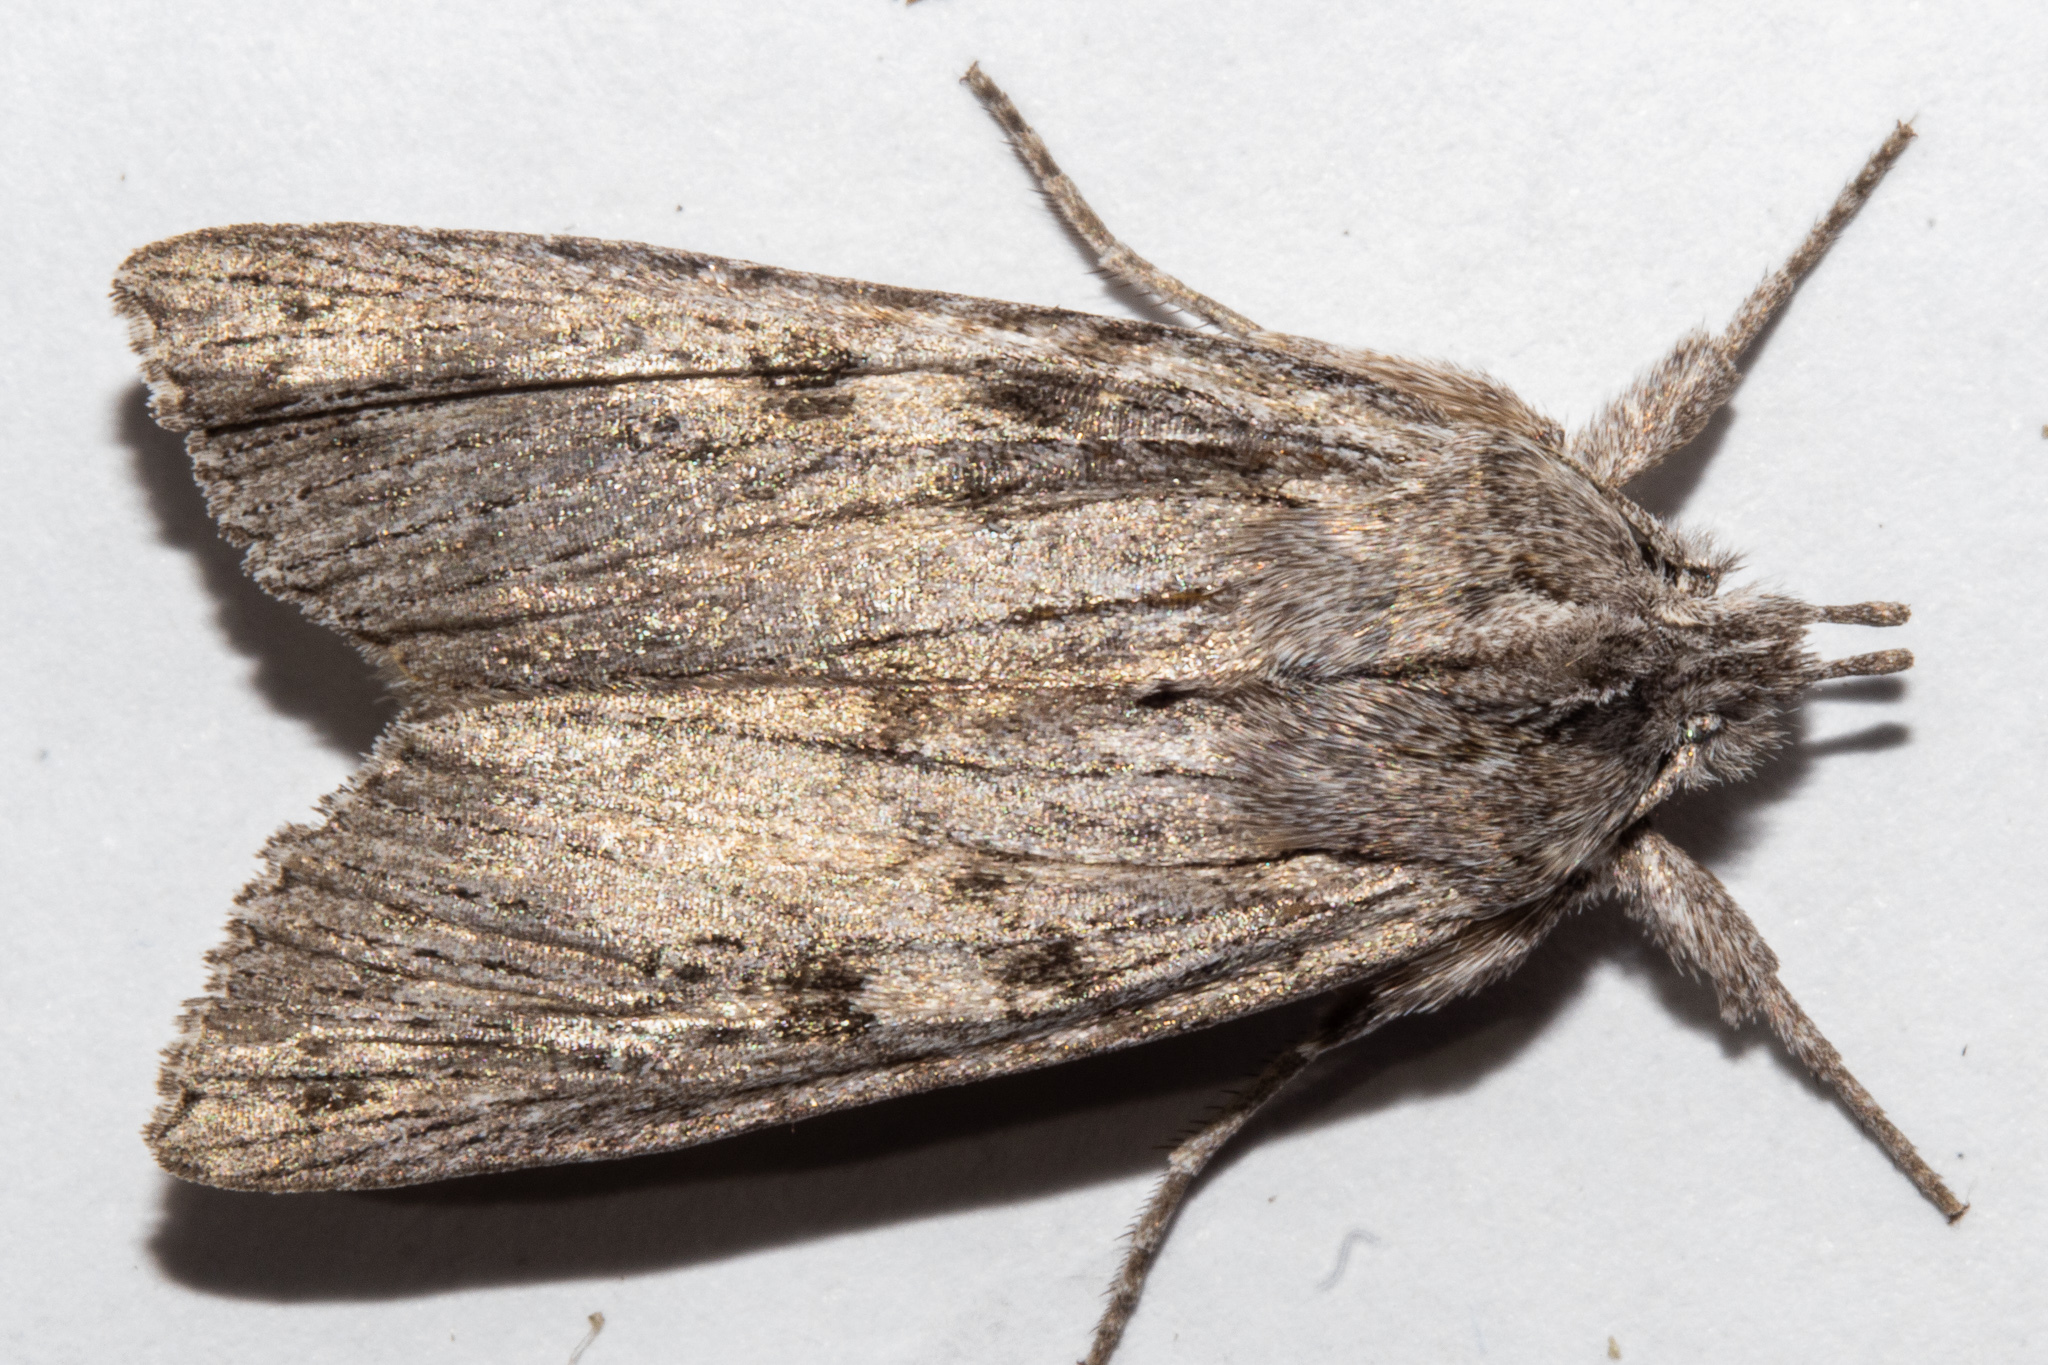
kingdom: Animalia
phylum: Arthropoda
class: Insecta
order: Lepidoptera
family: Noctuidae
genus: Physetica
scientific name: Physetica phricias
